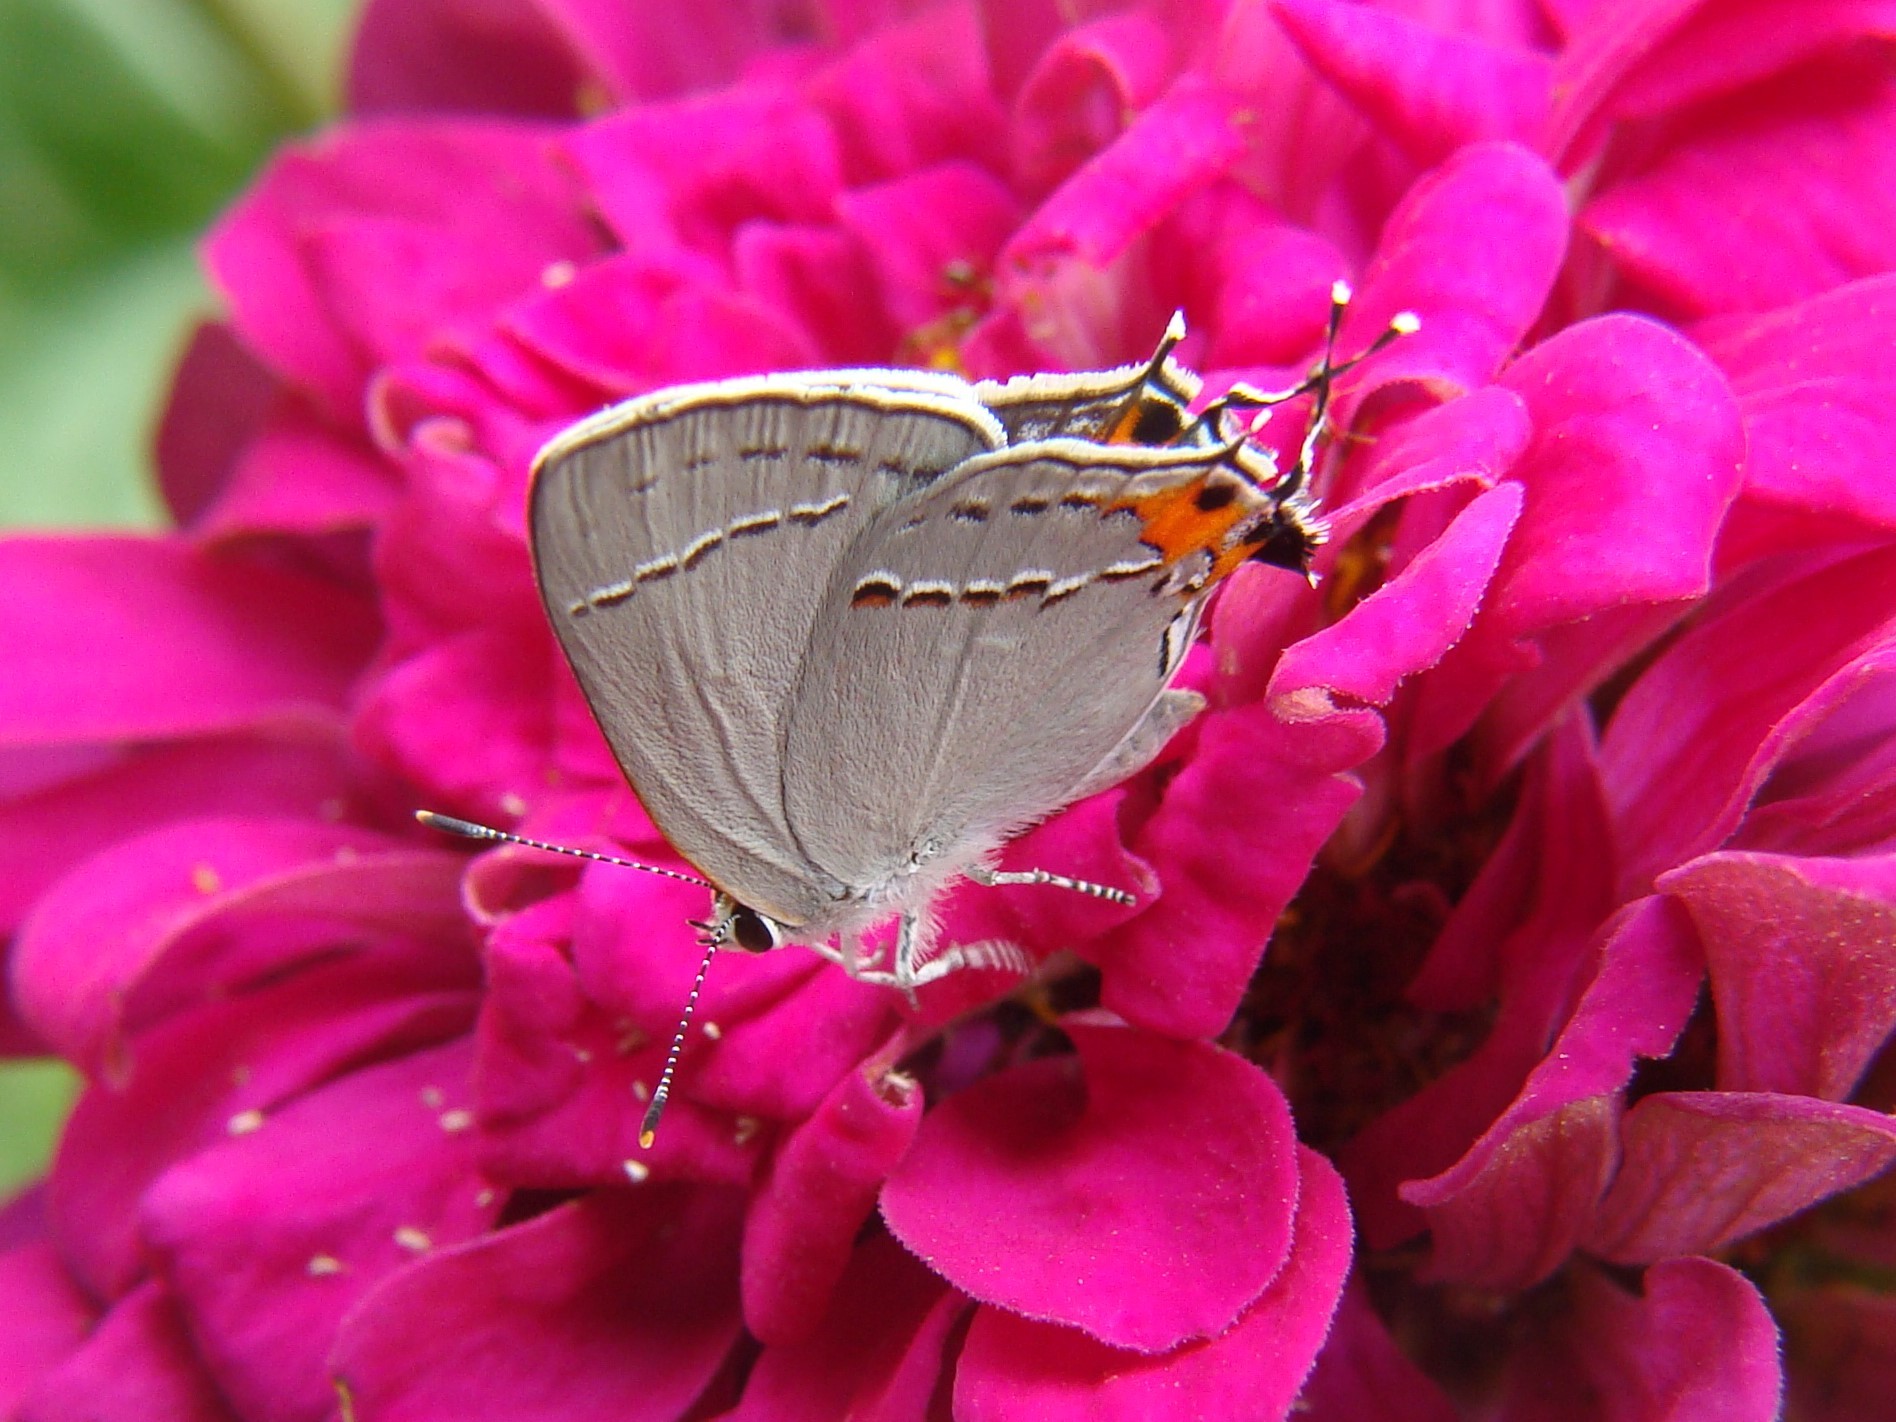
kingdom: Animalia
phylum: Arthropoda
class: Insecta
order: Lepidoptera
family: Lycaenidae
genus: Strymon
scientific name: Strymon melinus
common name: Gray hairstreak
